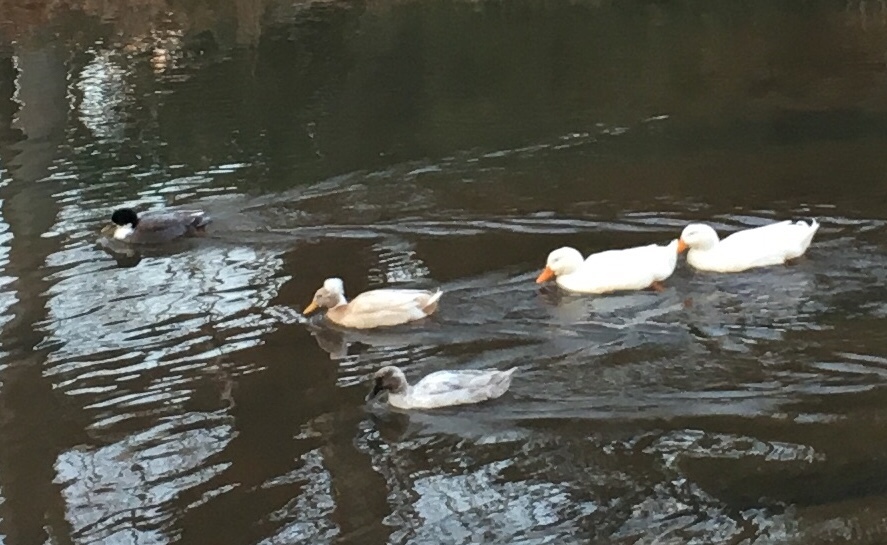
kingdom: Animalia
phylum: Chordata
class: Aves
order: Anseriformes
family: Anatidae
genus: Anas
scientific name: Anas platyrhynchos
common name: Mallard
